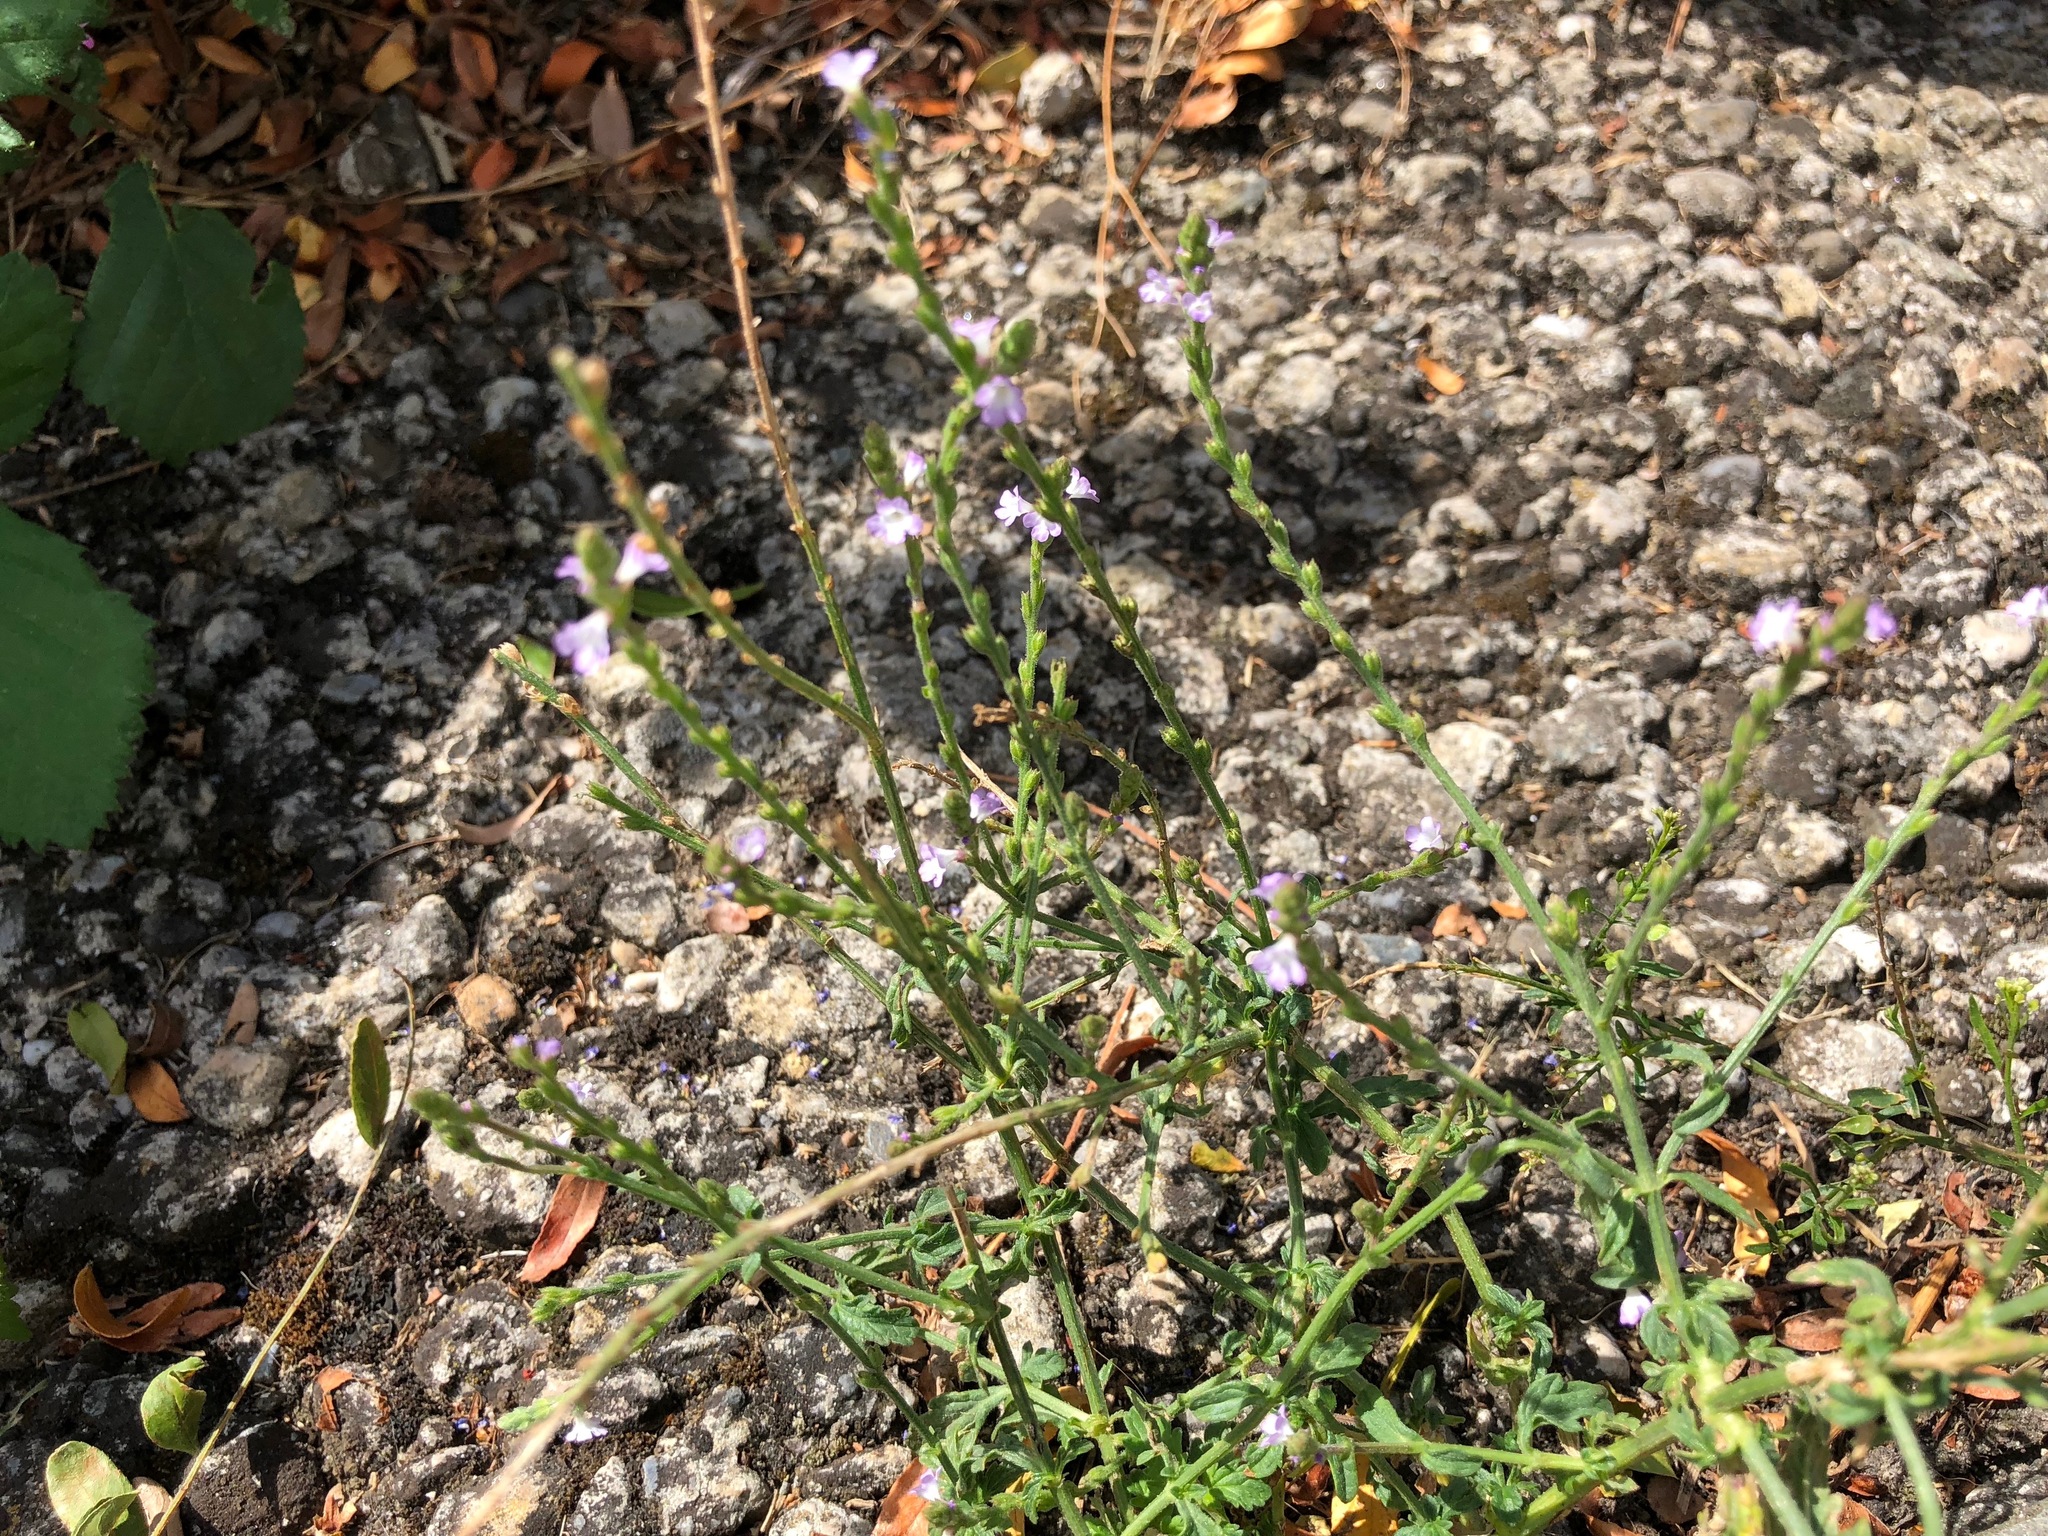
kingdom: Plantae
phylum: Tracheophyta
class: Magnoliopsida
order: Lamiales
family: Verbenaceae
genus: Verbena
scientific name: Verbena officinalis
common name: Vervain
